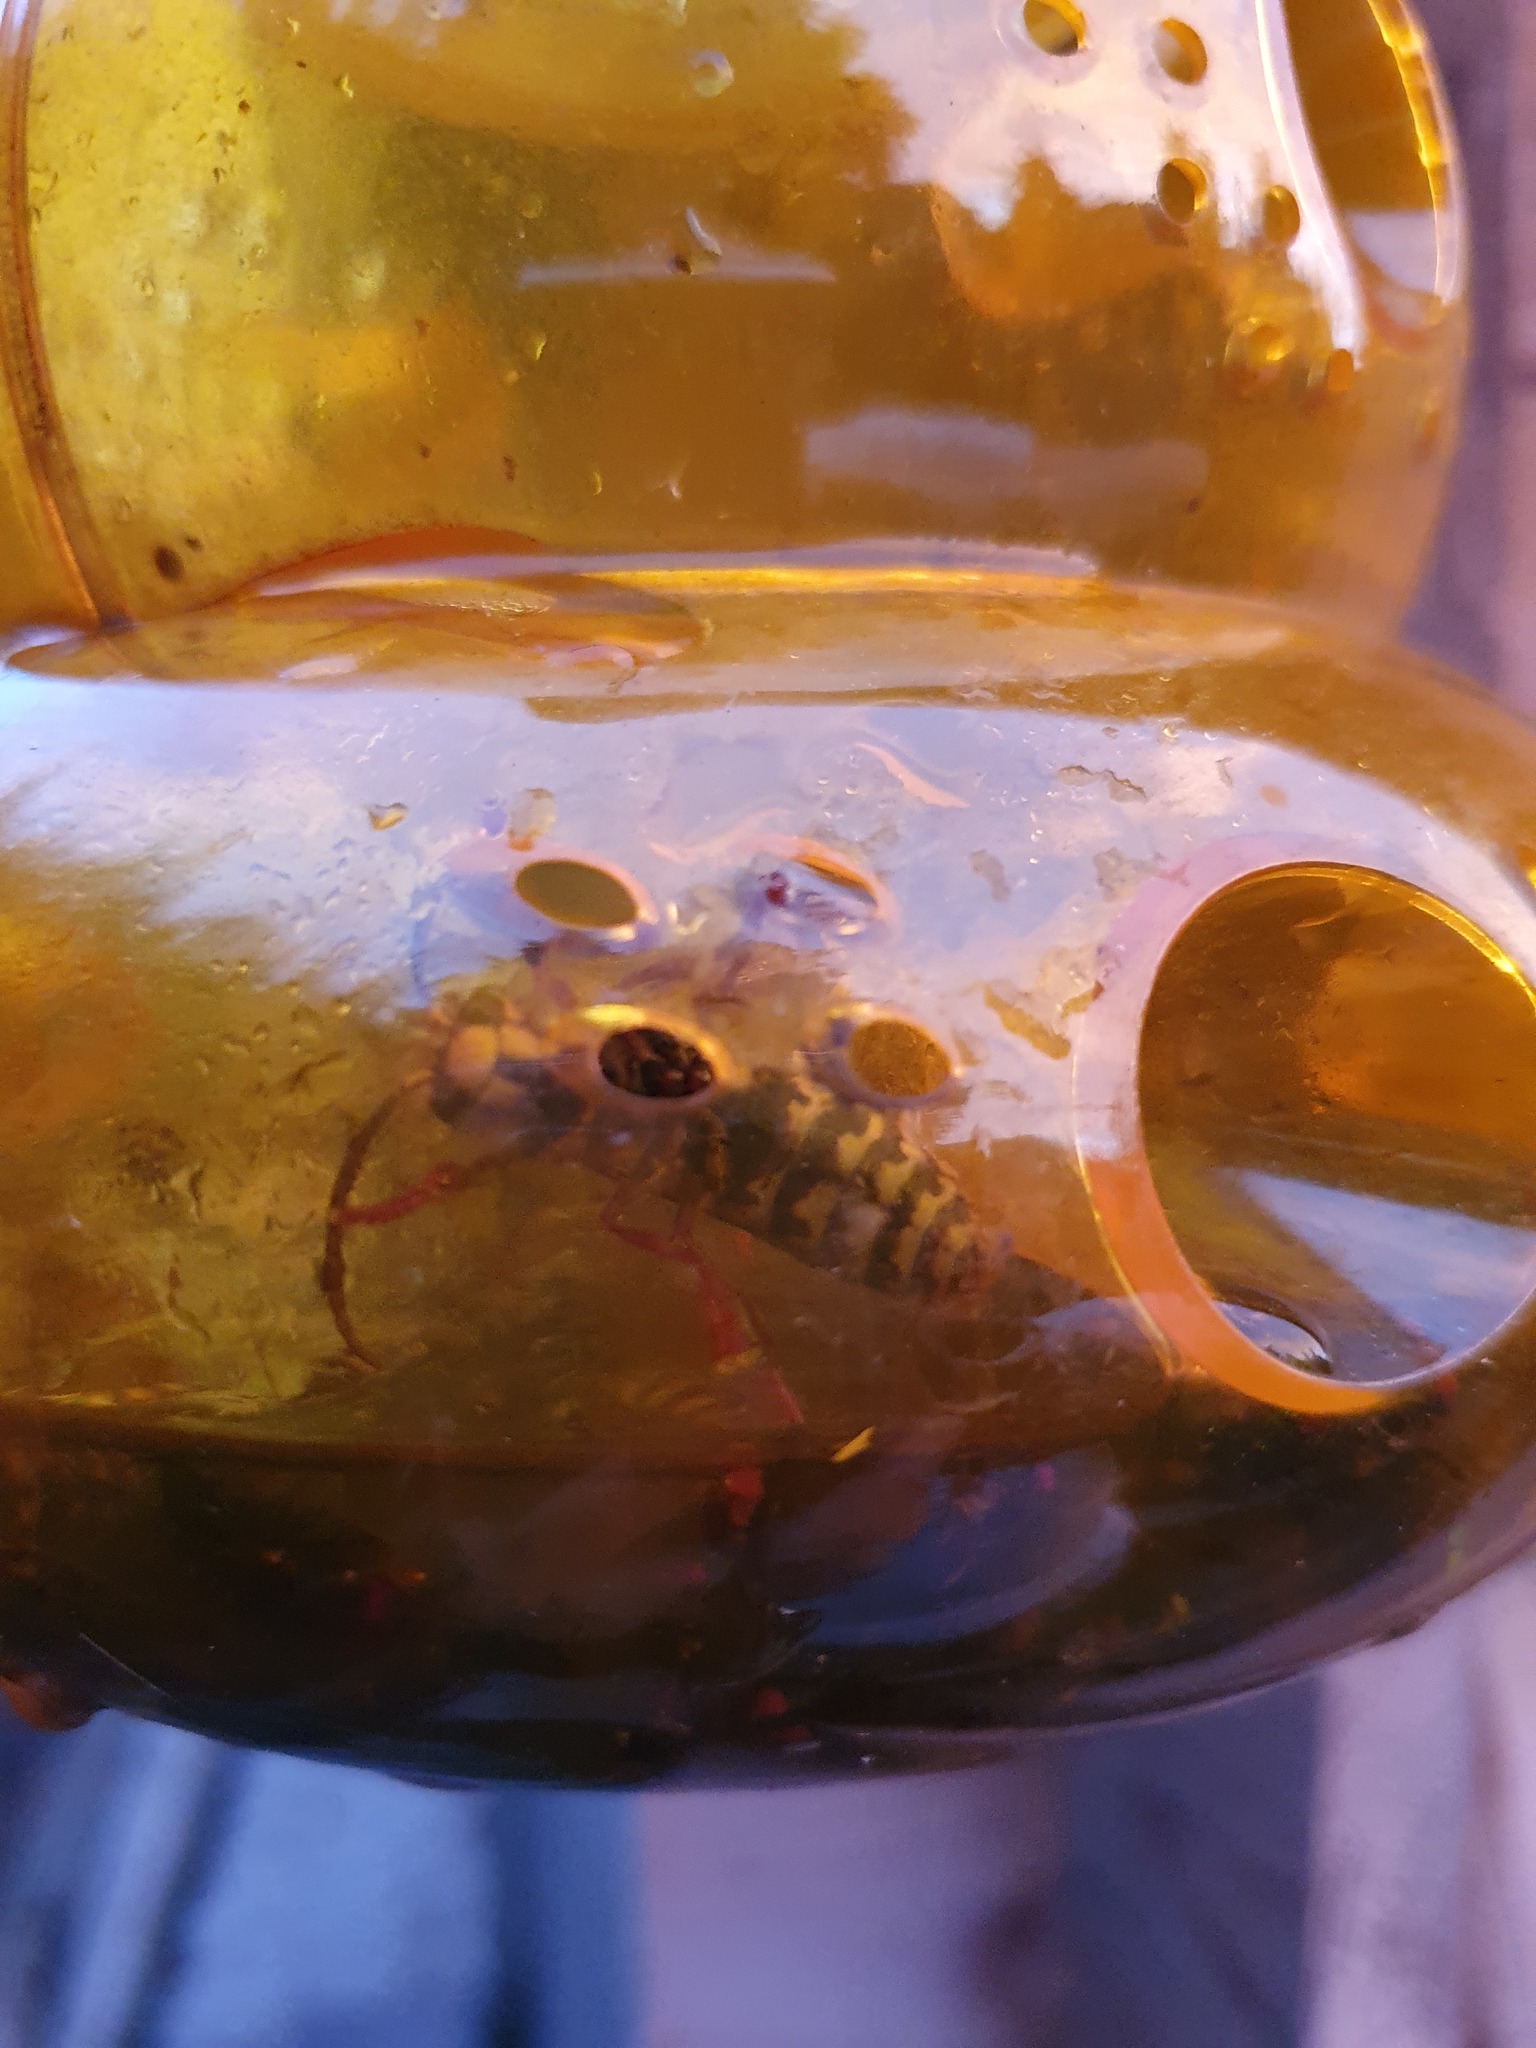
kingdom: Animalia
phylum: Arthropoda
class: Insecta
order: Hymenoptera
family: Vespidae
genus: Vespa
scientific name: Vespa crabro
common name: Hornet
